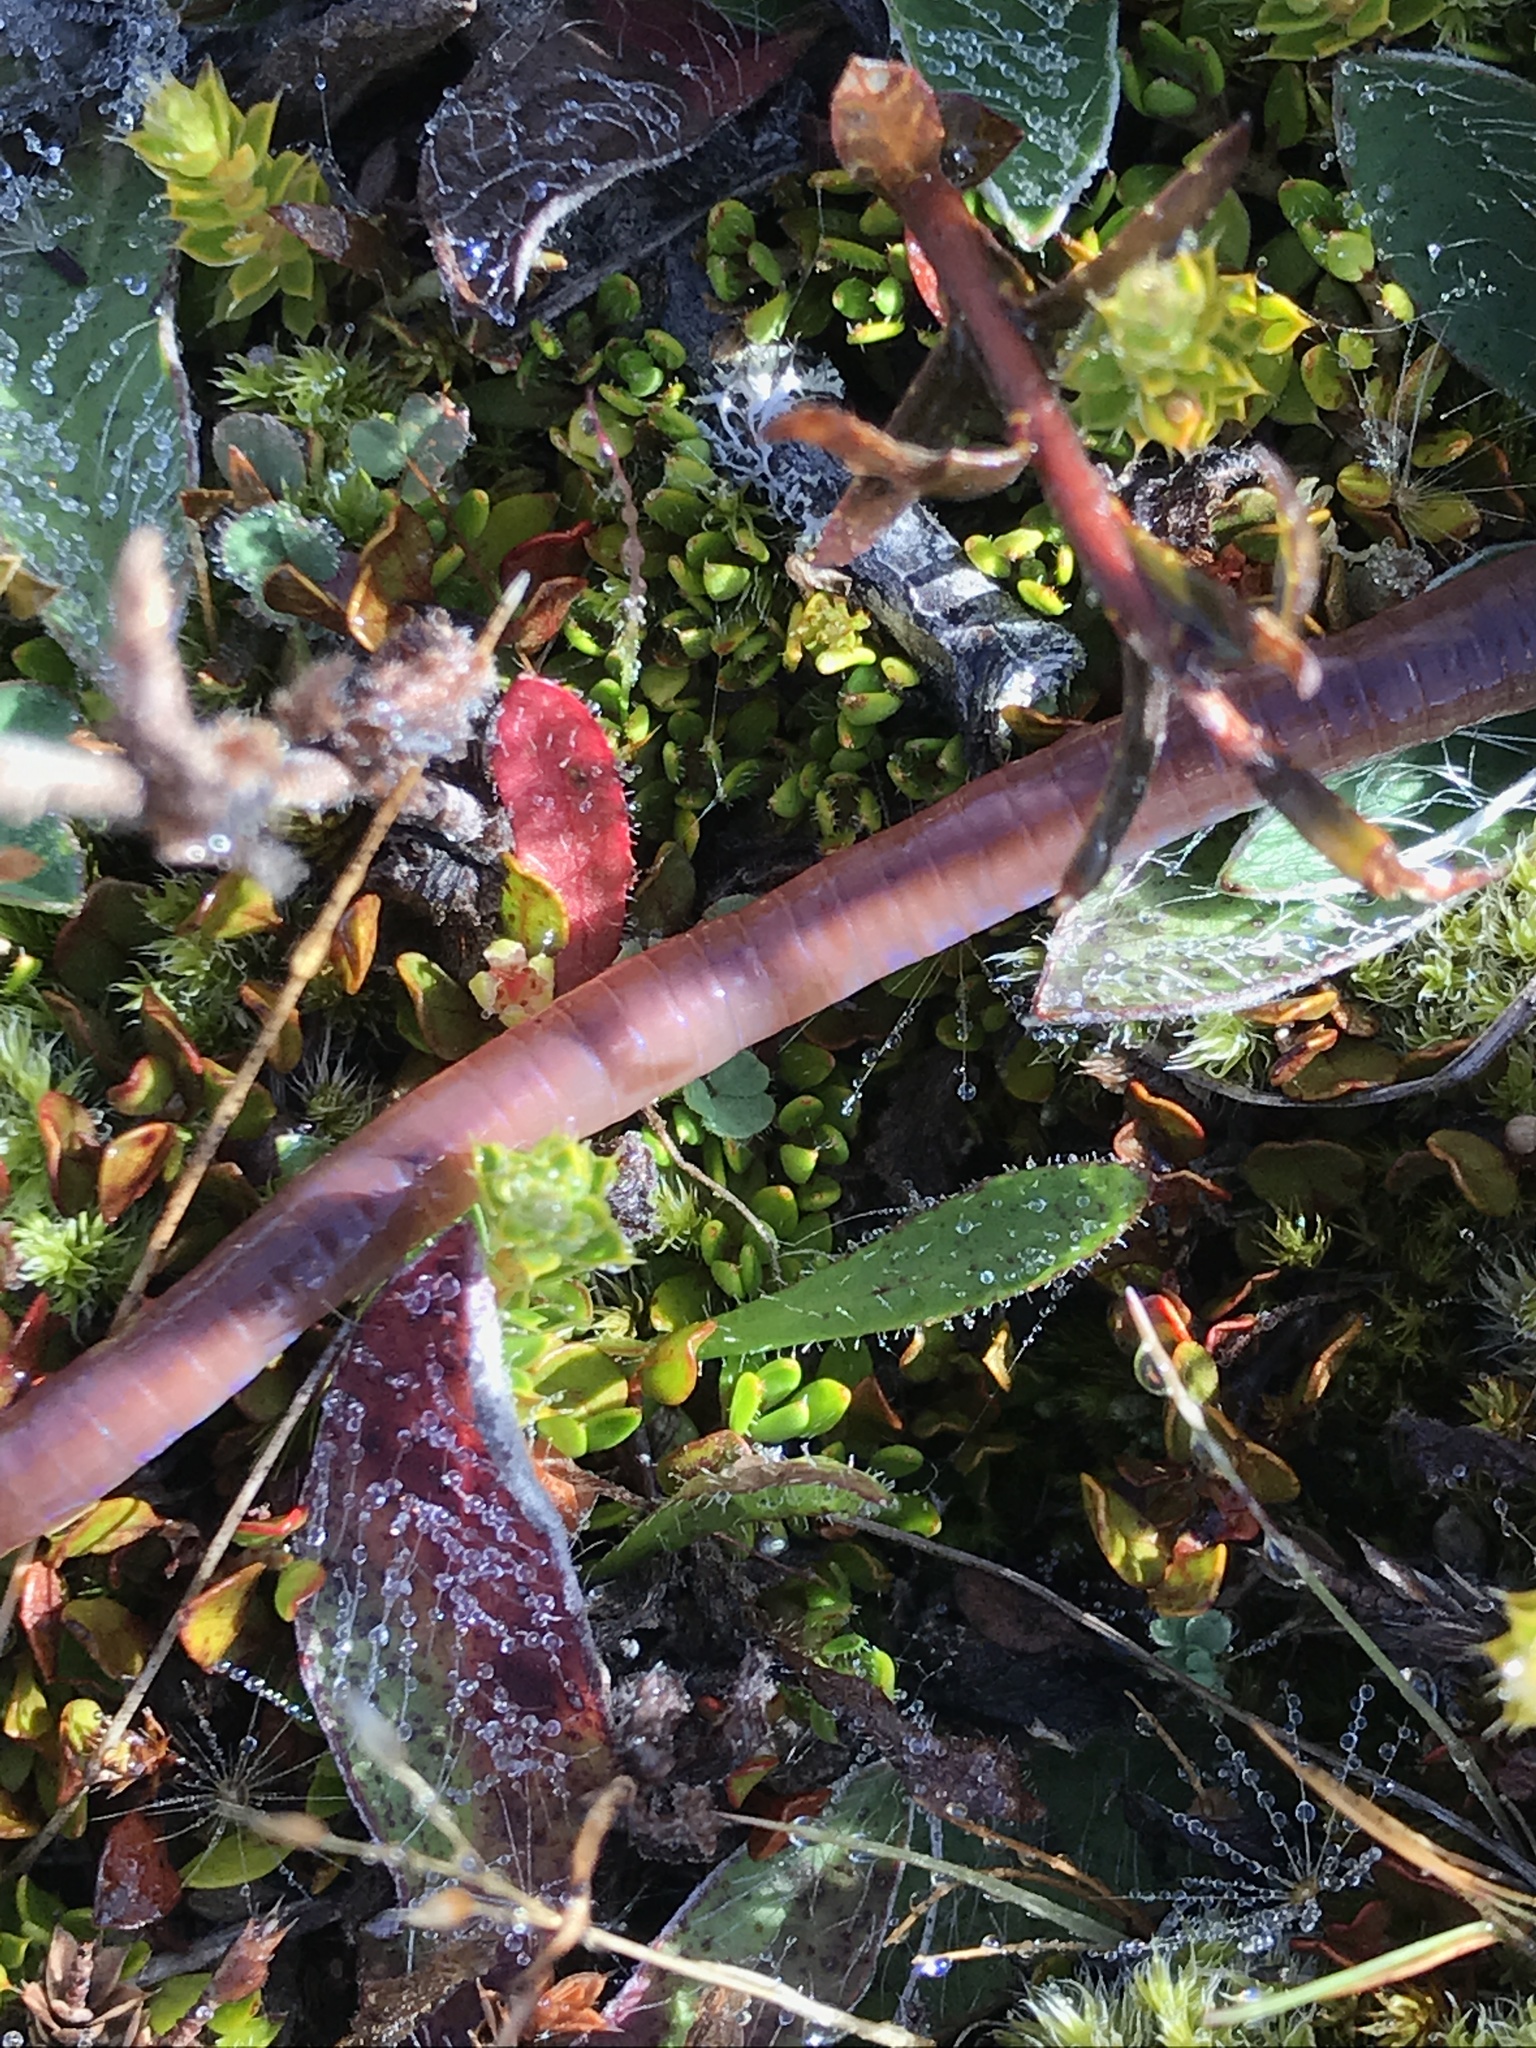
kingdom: Plantae
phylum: Tracheophyta
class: Magnoliopsida
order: Ericales
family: Ericaceae
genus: Styphelia
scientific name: Styphelia nesophila
